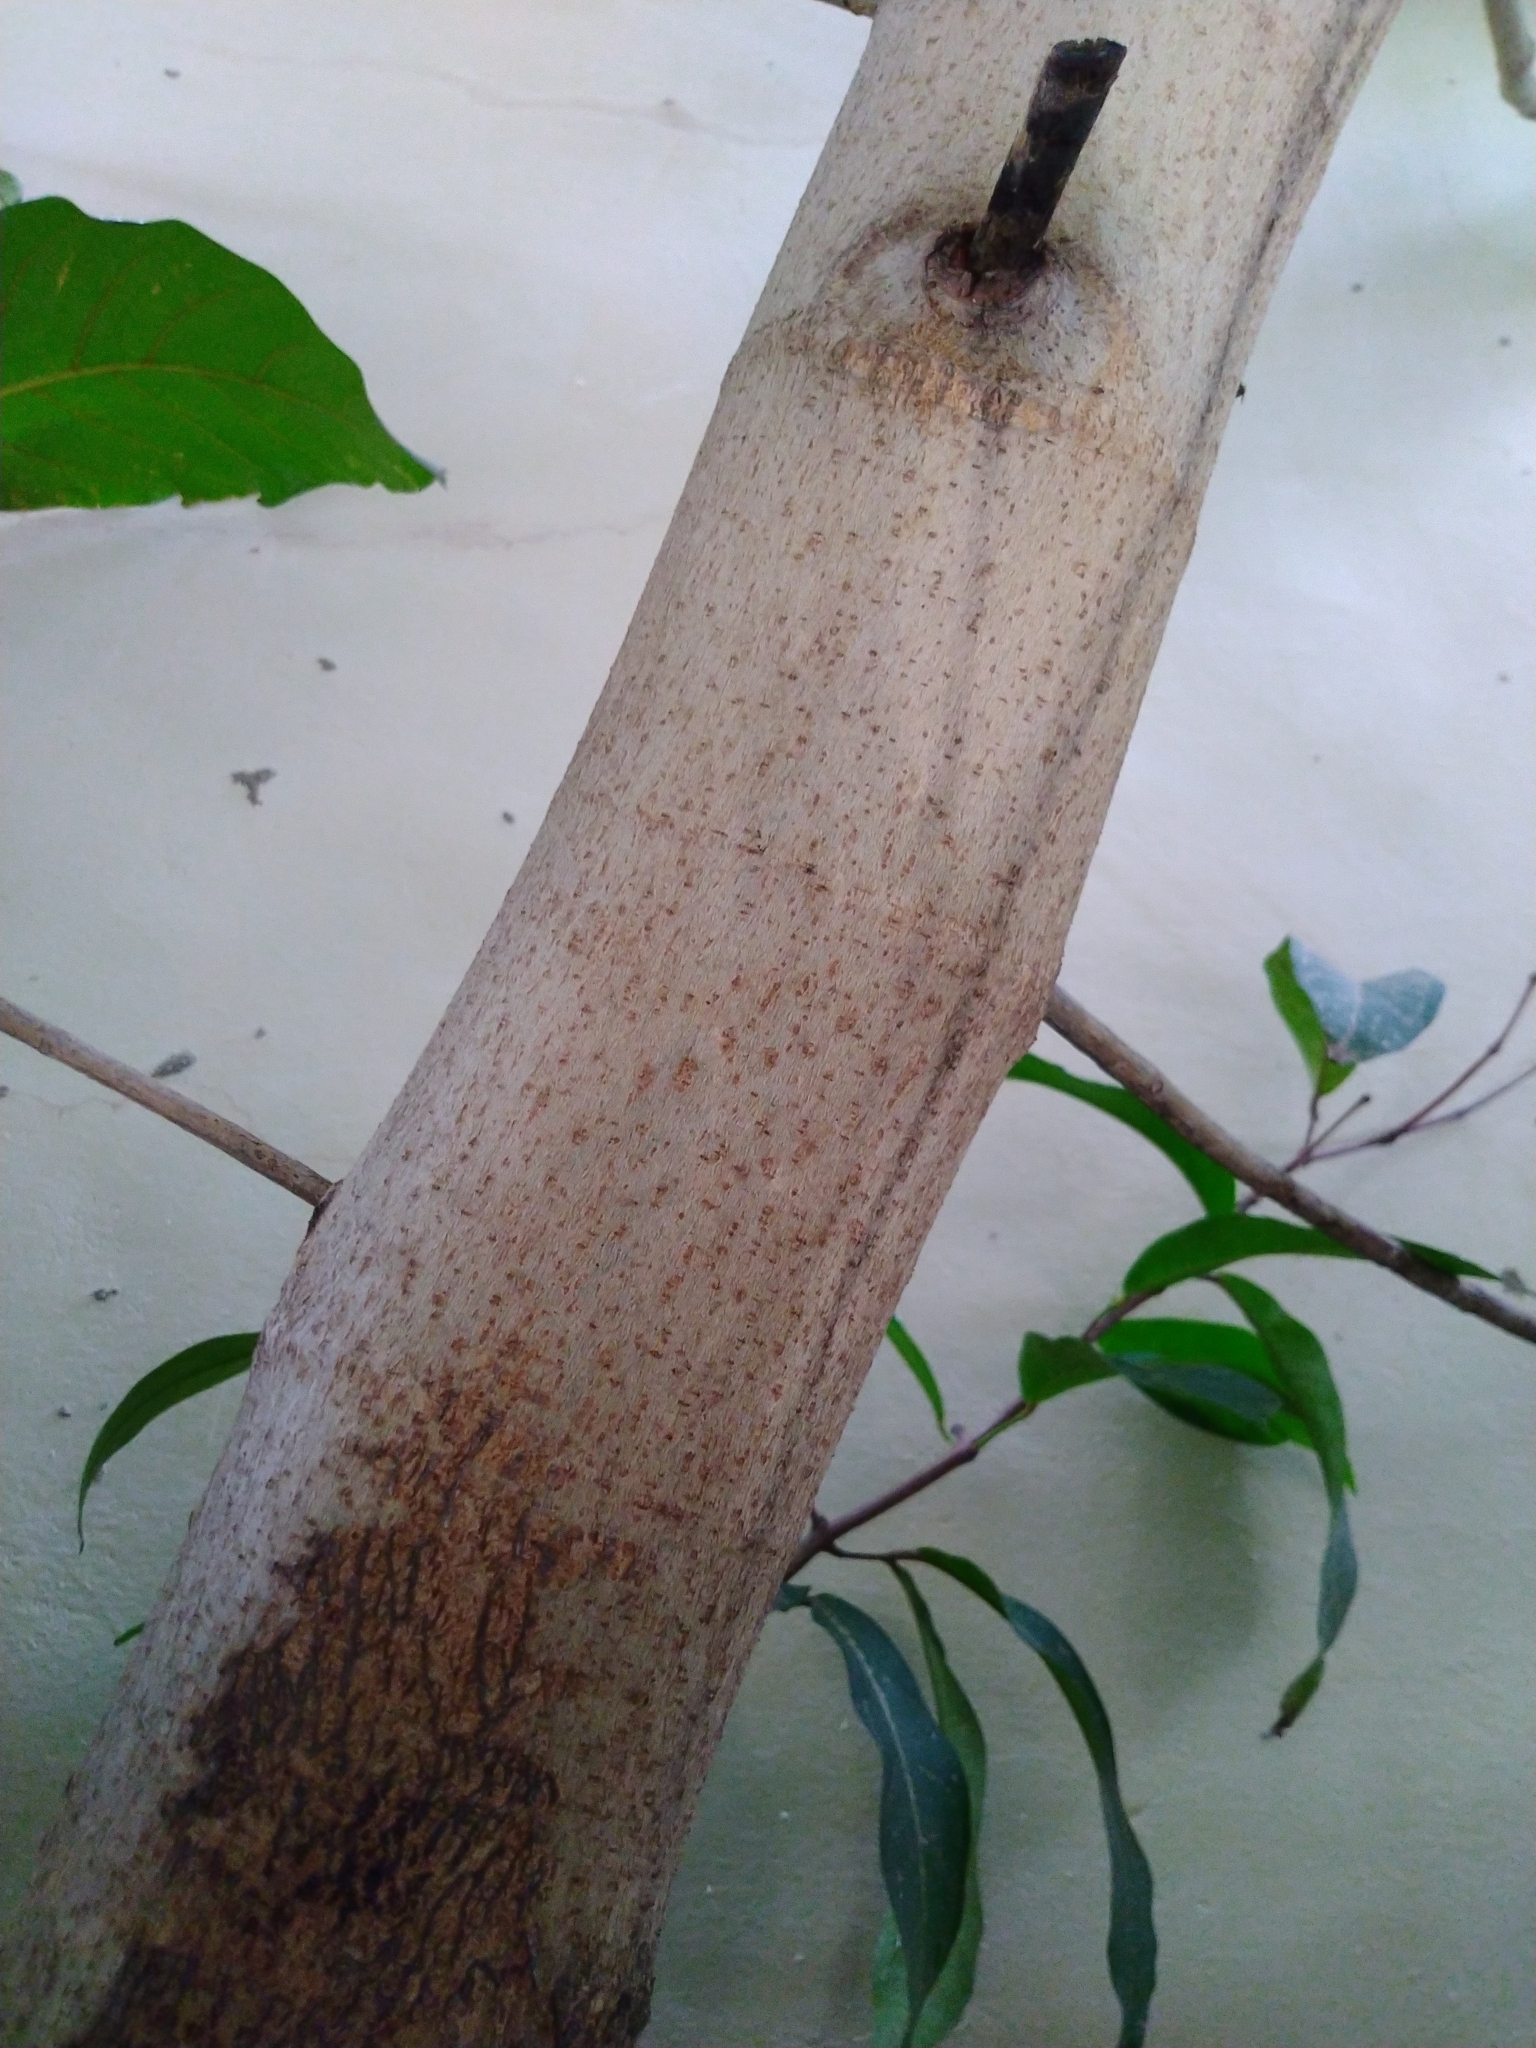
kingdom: Plantae
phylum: Tracheophyta
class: Magnoliopsida
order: Rosales
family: Moraceae
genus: Ficus
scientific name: Ficus septica
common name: Septic fig
